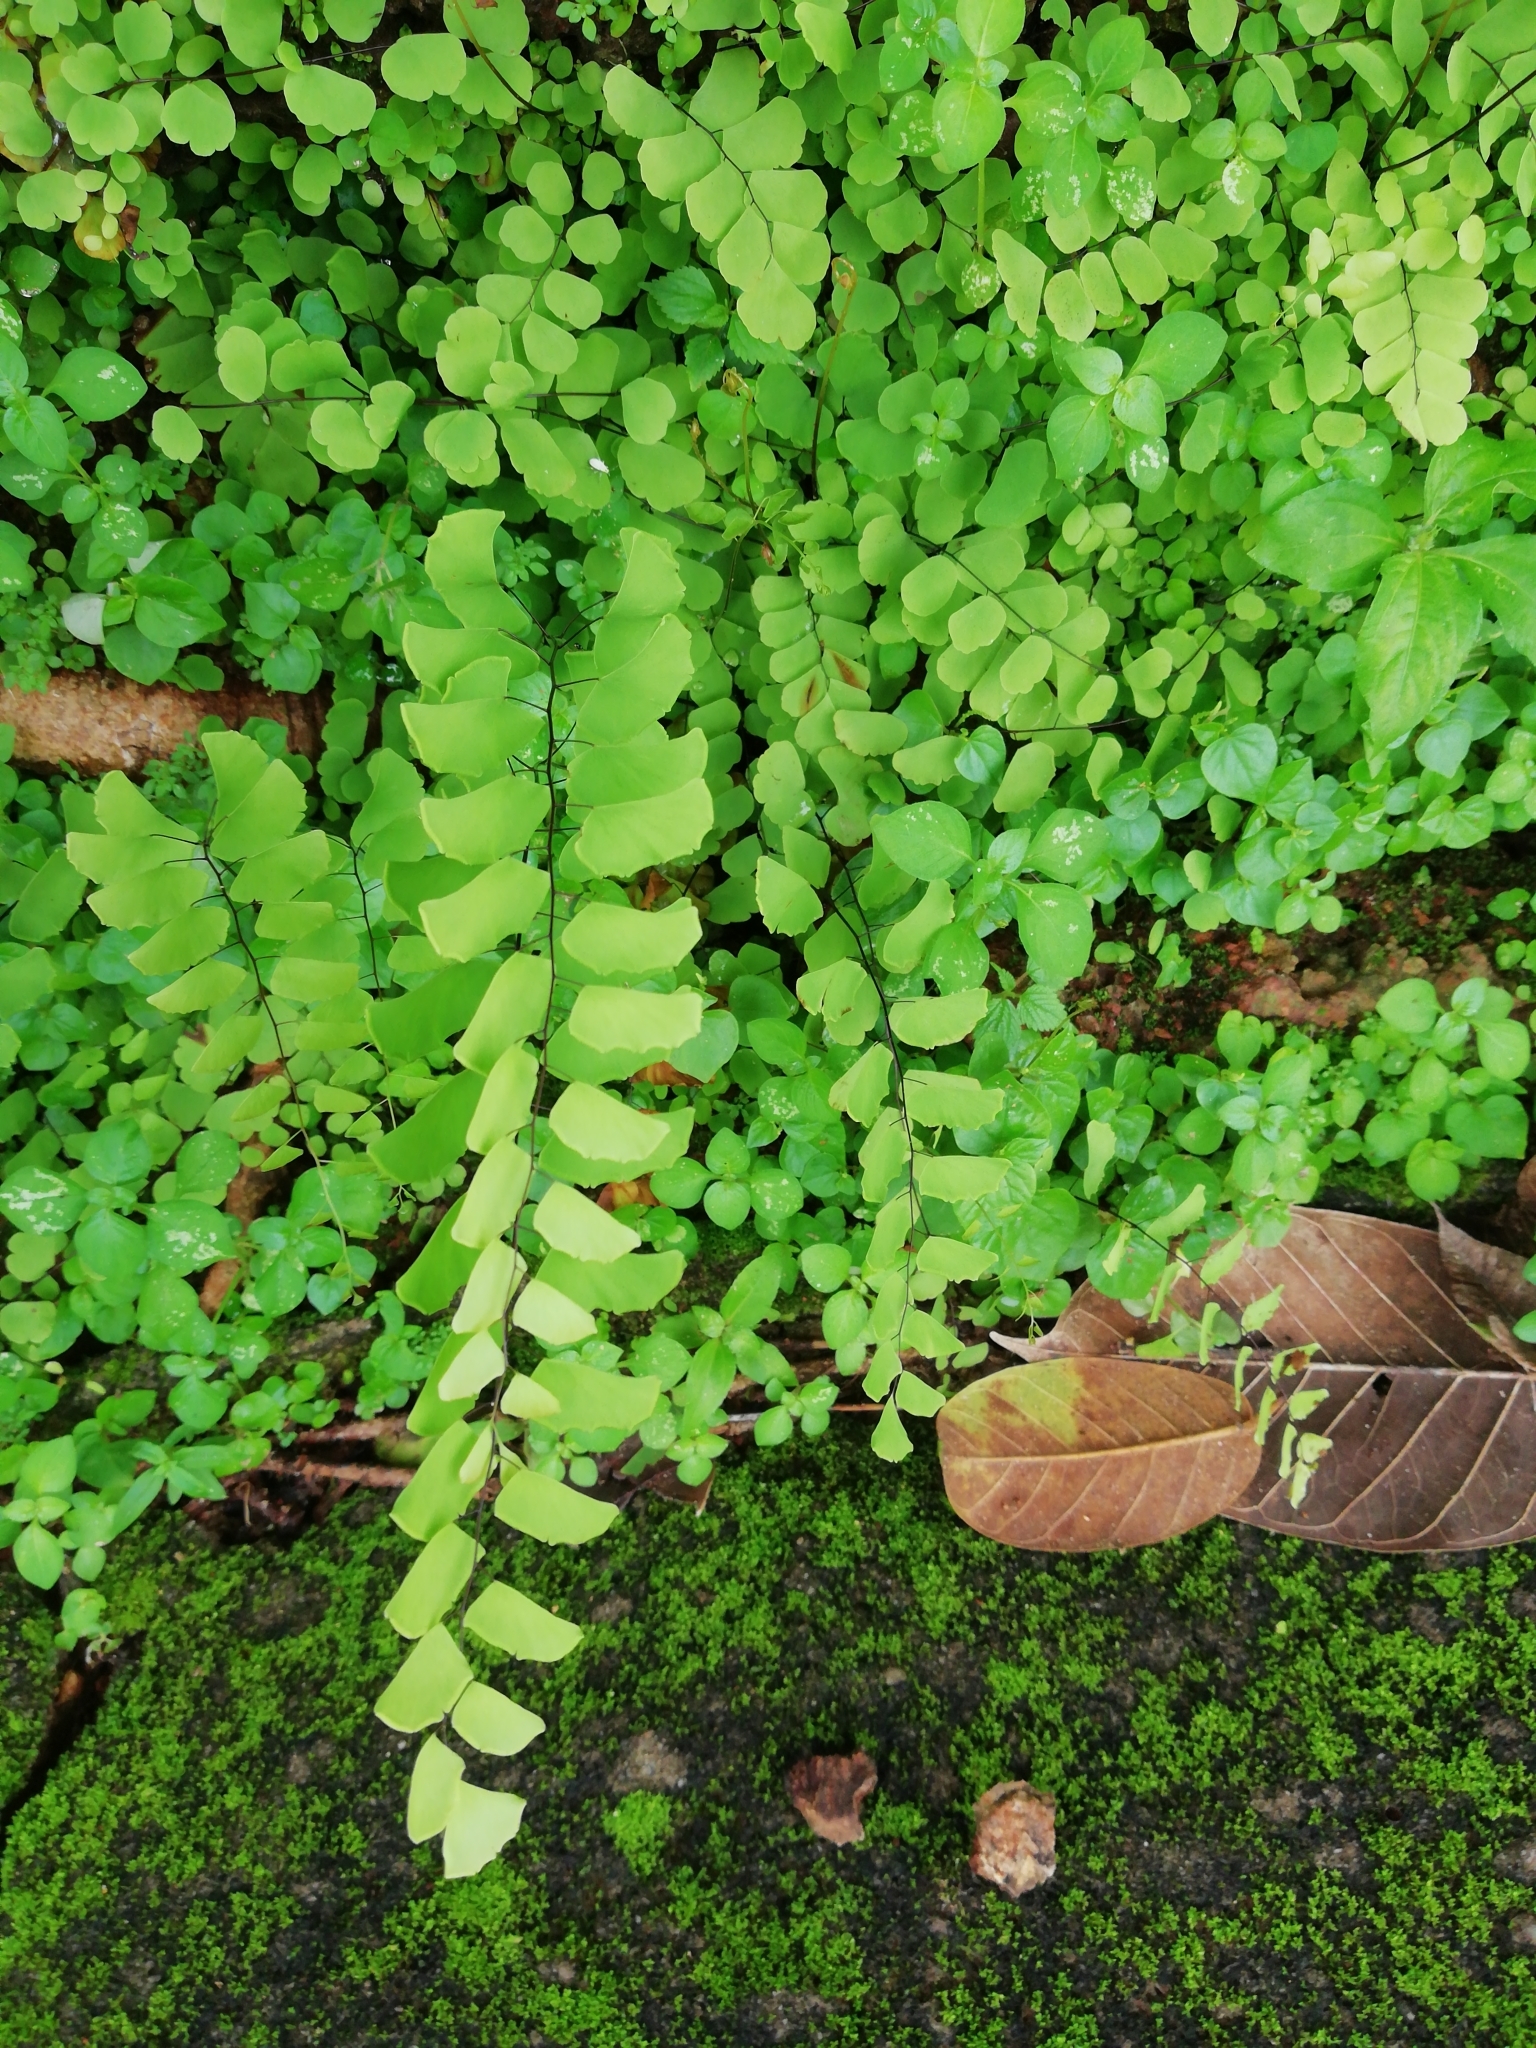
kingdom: Plantae
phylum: Tracheophyta
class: Polypodiopsida
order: Polypodiales
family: Pteridaceae
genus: Adiantum
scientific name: Adiantum philippense
